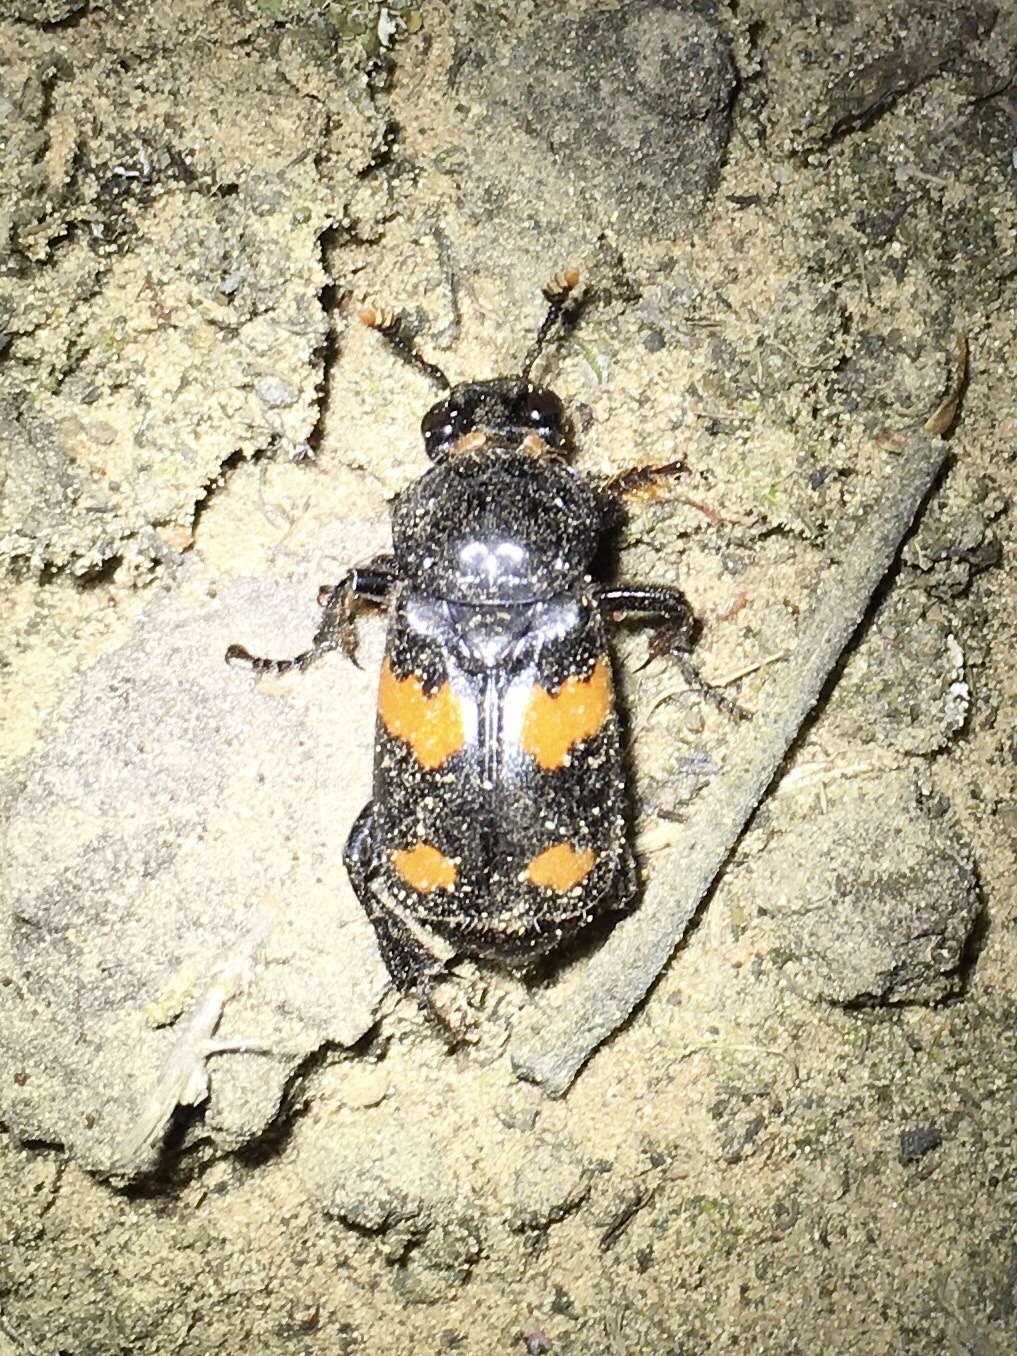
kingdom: Animalia
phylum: Arthropoda
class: Insecta
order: Coleoptera
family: Staphylinidae
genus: Nicrophorus
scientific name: Nicrophorus orbicollis
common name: Roundneck sexton beetle
